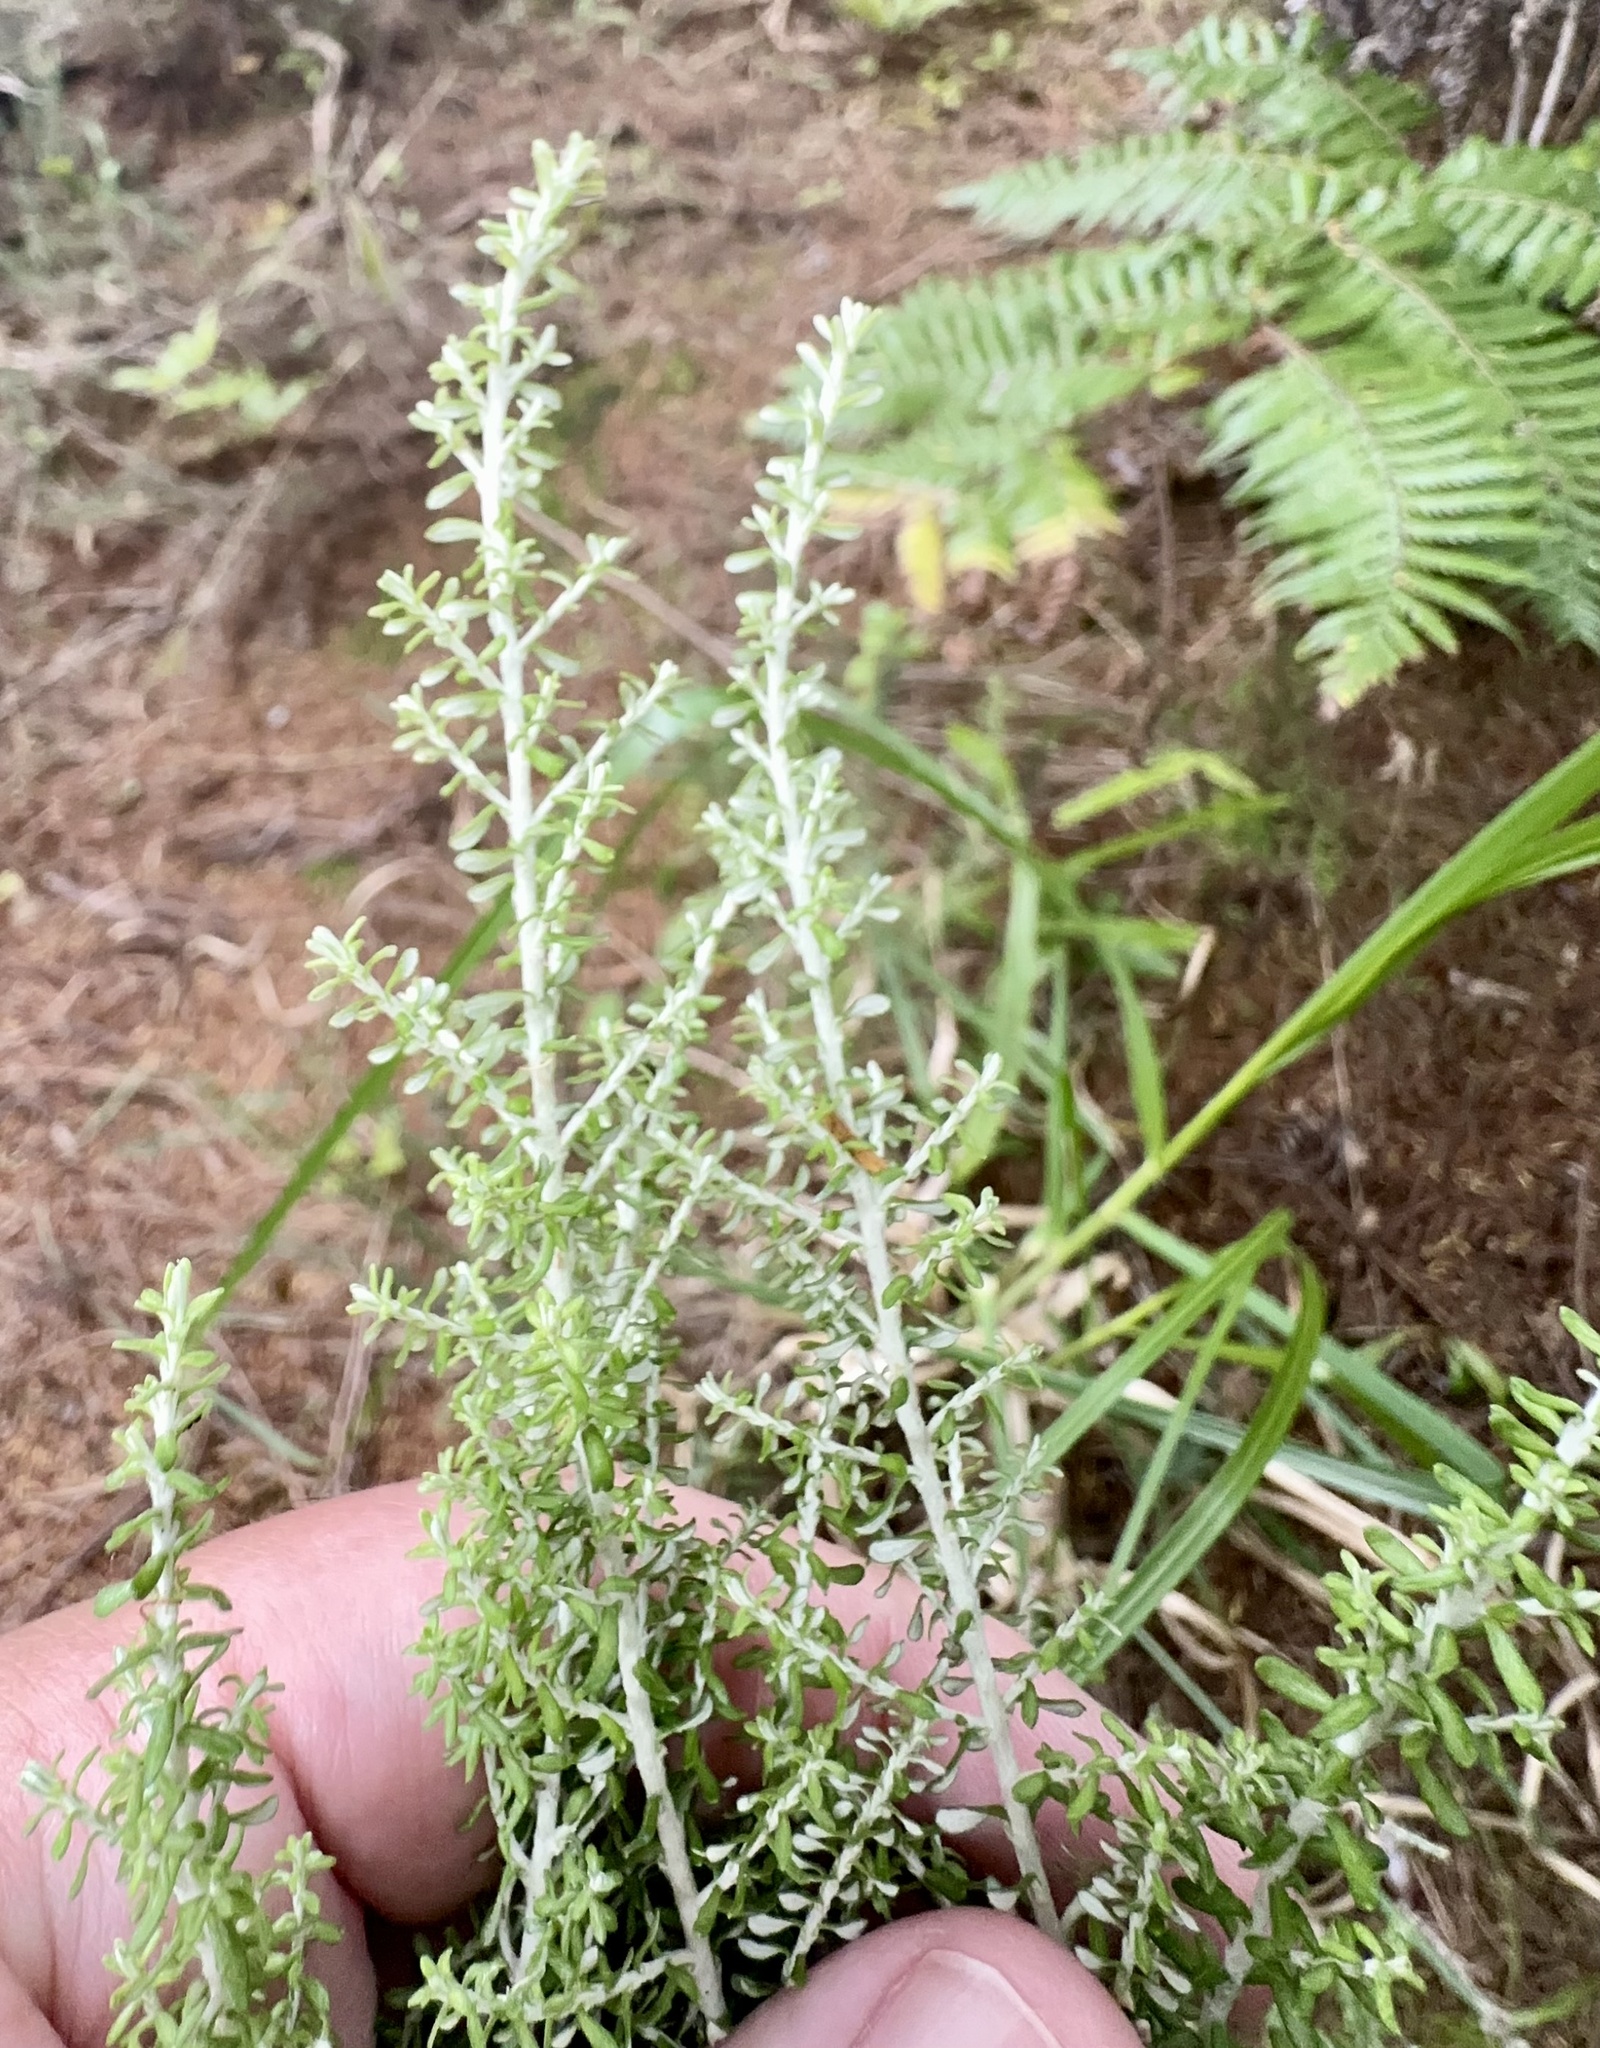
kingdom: Plantae
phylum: Tracheophyta
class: Magnoliopsida
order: Asterales
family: Asteraceae
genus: Ozothamnus
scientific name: Ozothamnus leptophyllus
